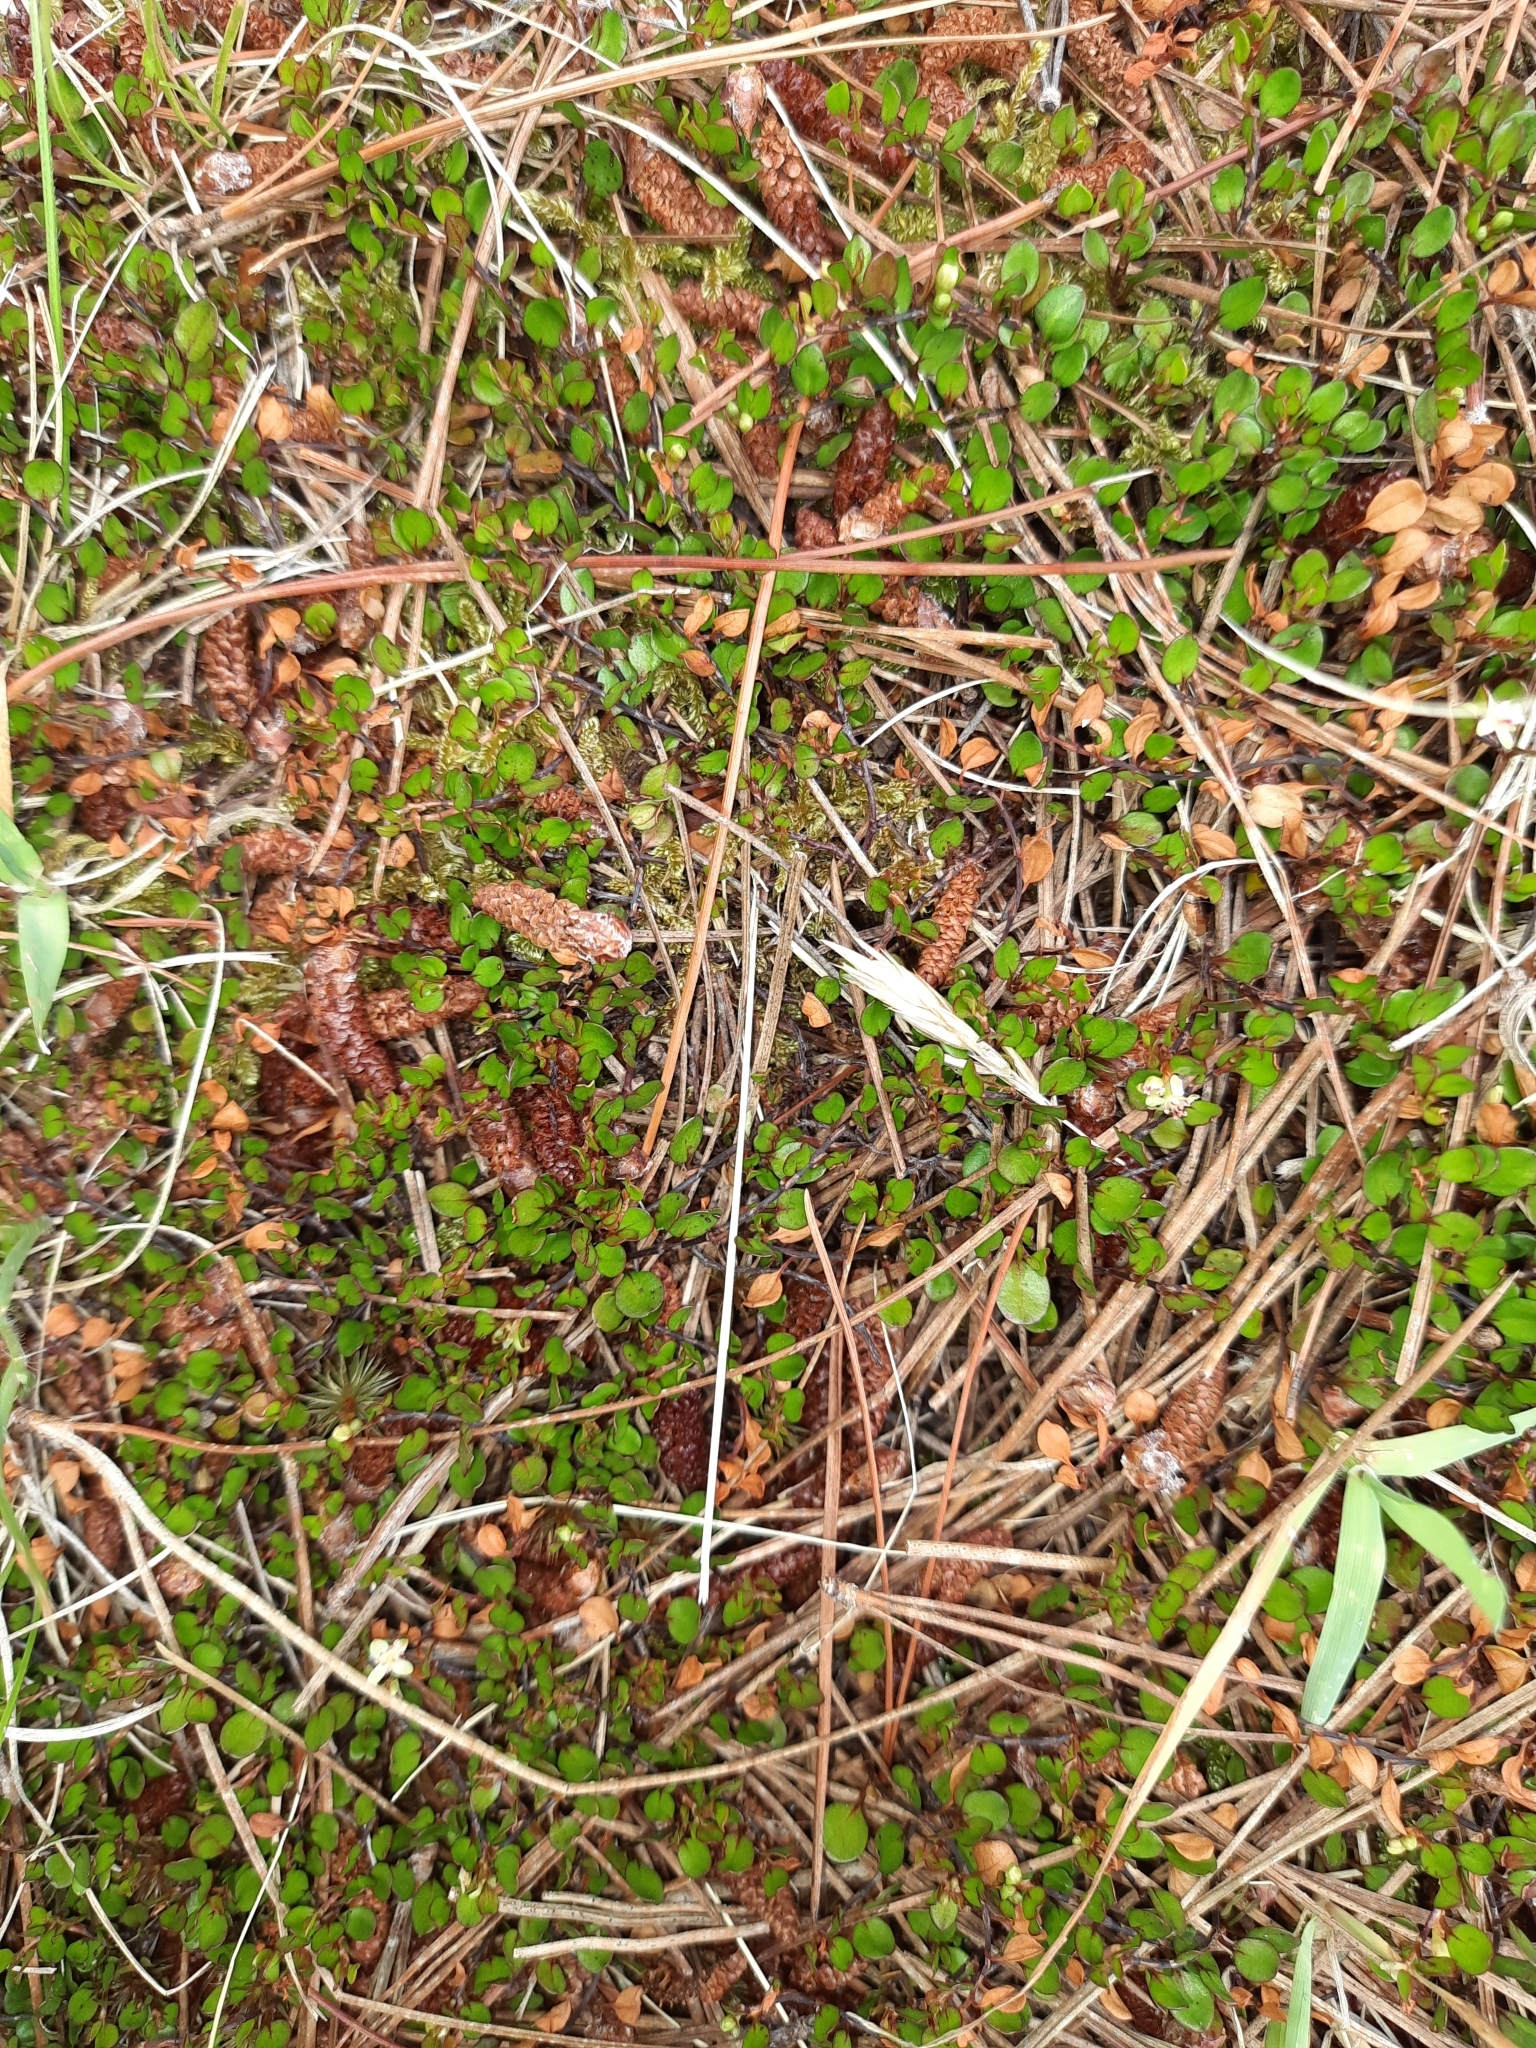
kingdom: Plantae
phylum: Tracheophyta
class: Magnoliopsida
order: Caryophyllales
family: Polygonaceae
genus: Muehlenbeckia
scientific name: Muehlenbeckia axillaris
